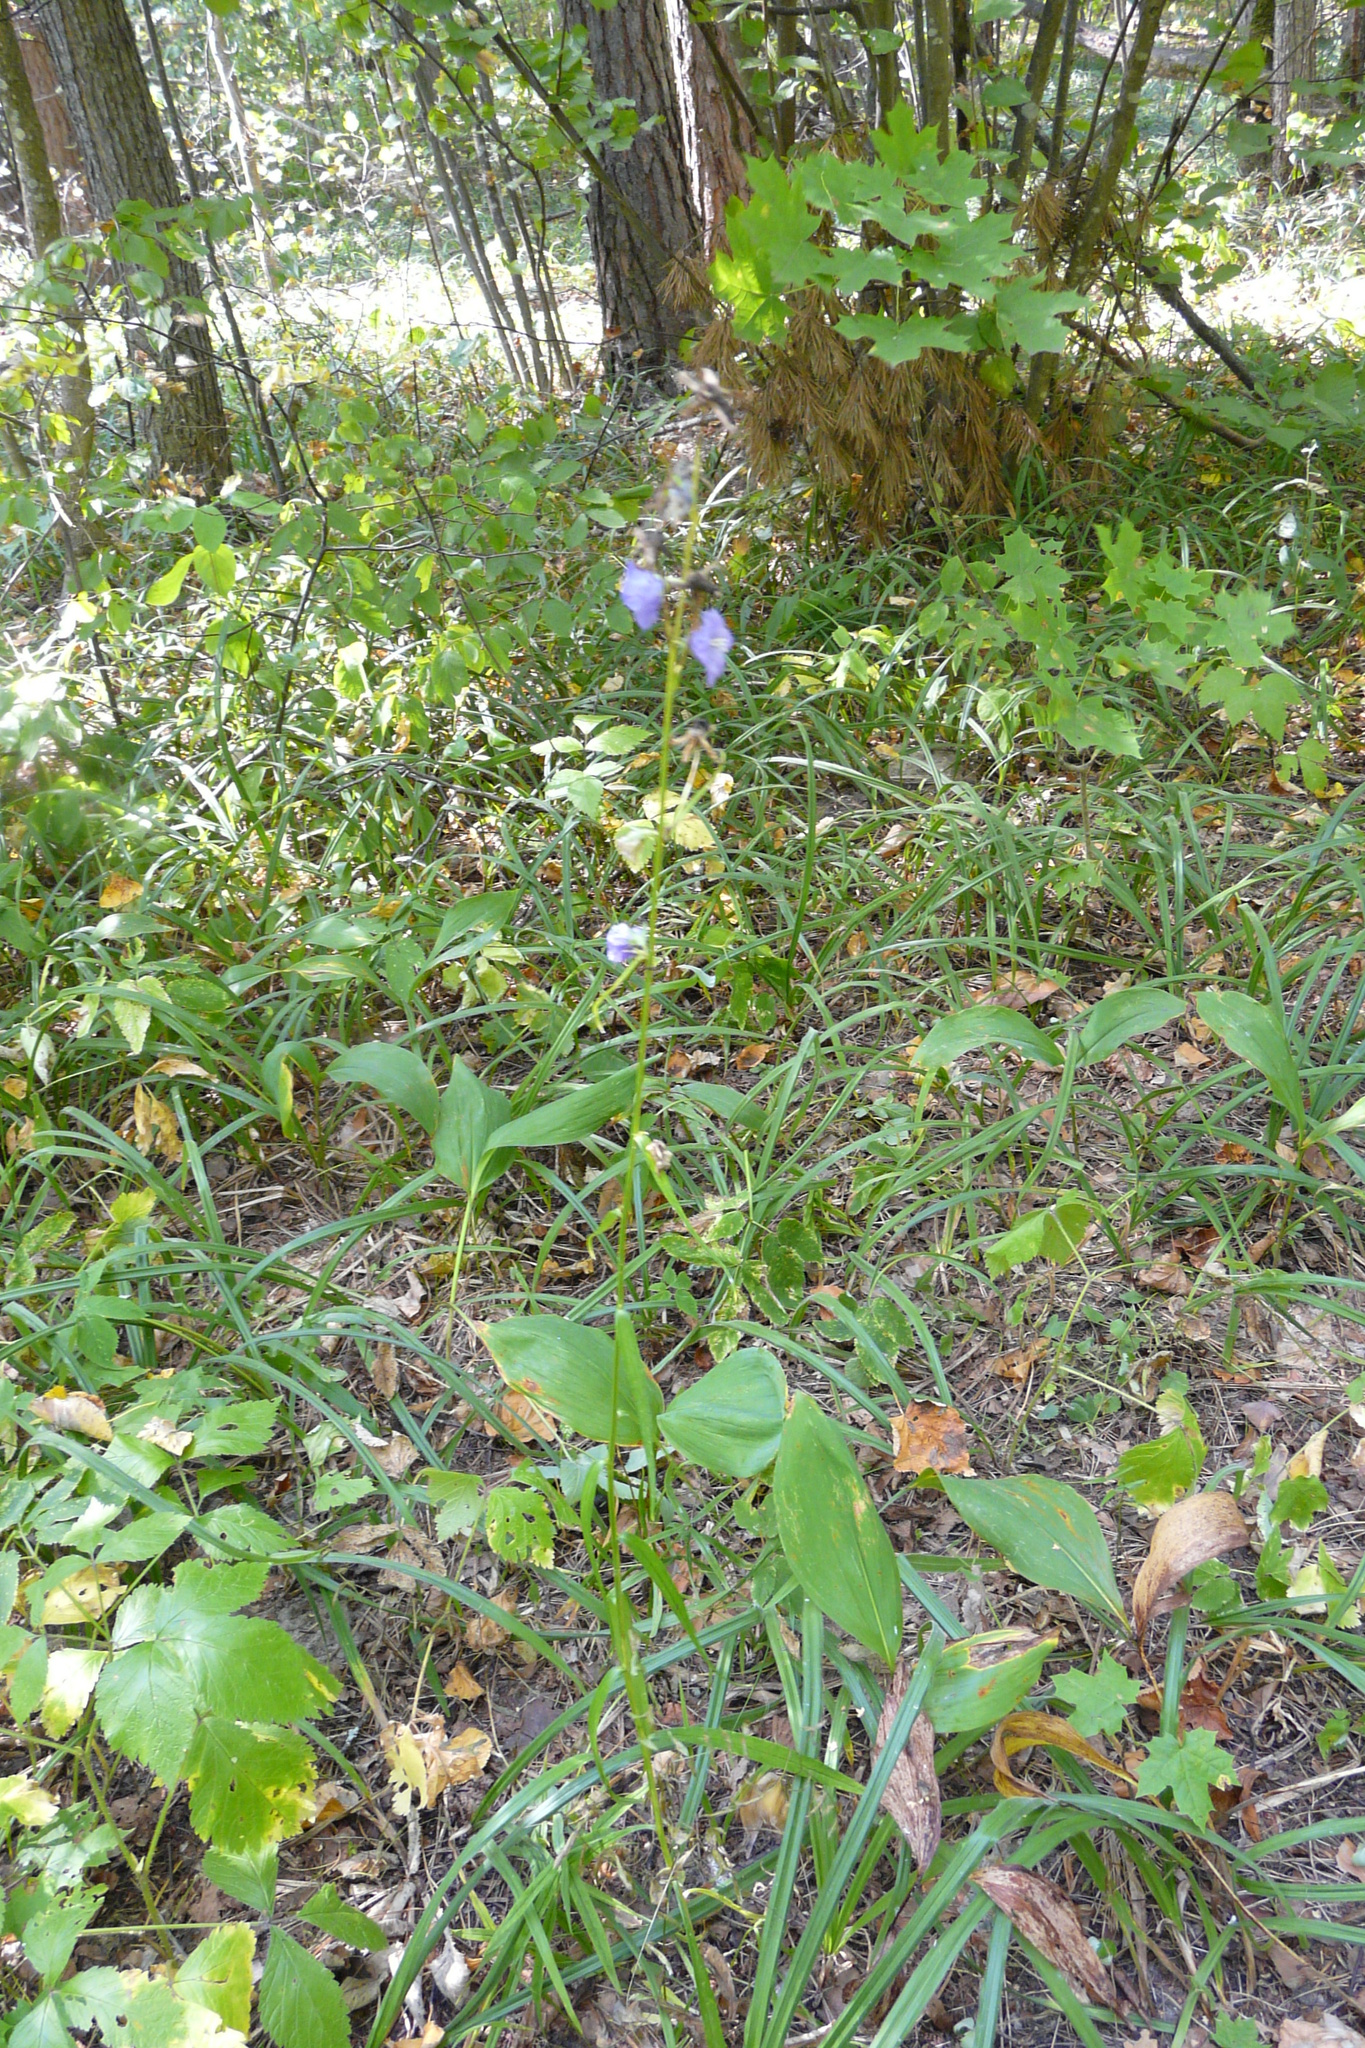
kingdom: Plantae
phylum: Tracheophyta
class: Magnoliopsida
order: Asterales
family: Campanulaceae
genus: Campanula
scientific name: Campanula persicifolia
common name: Peach-leaved bellflower
